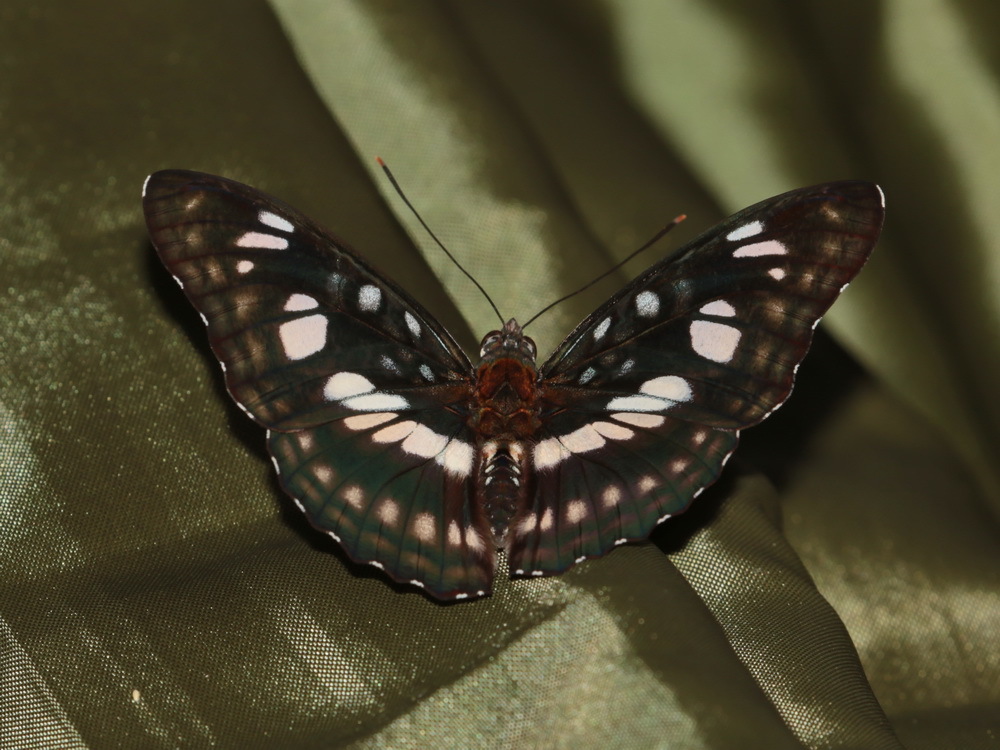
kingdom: Animalia
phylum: Arthropoda
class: Insecta
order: Lepidoptera
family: Nymphalidae
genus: Parathyma
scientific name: Parathyma ranga
